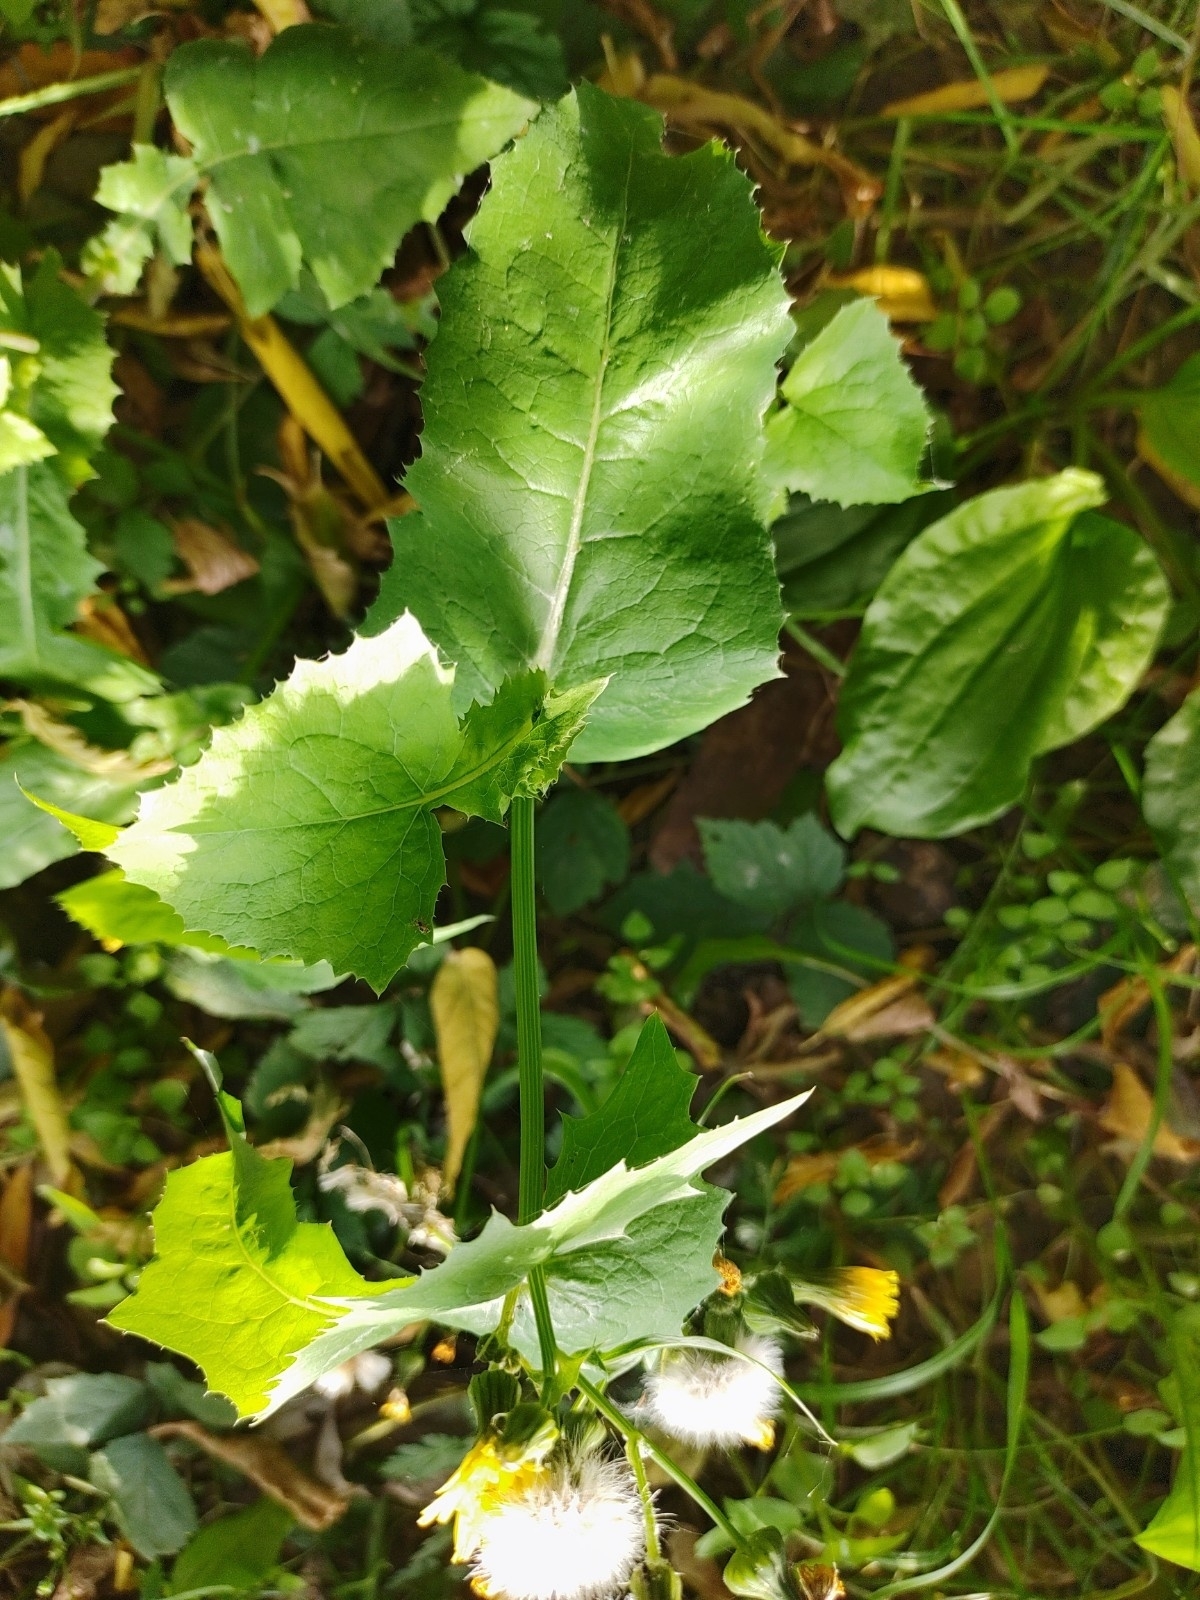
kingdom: Plantae
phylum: Tracheophyta
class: Magnoliopsida
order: Asterales
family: Asteraceae
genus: Sonchus
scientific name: Sonchus oleraceus
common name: Common sowthistle
